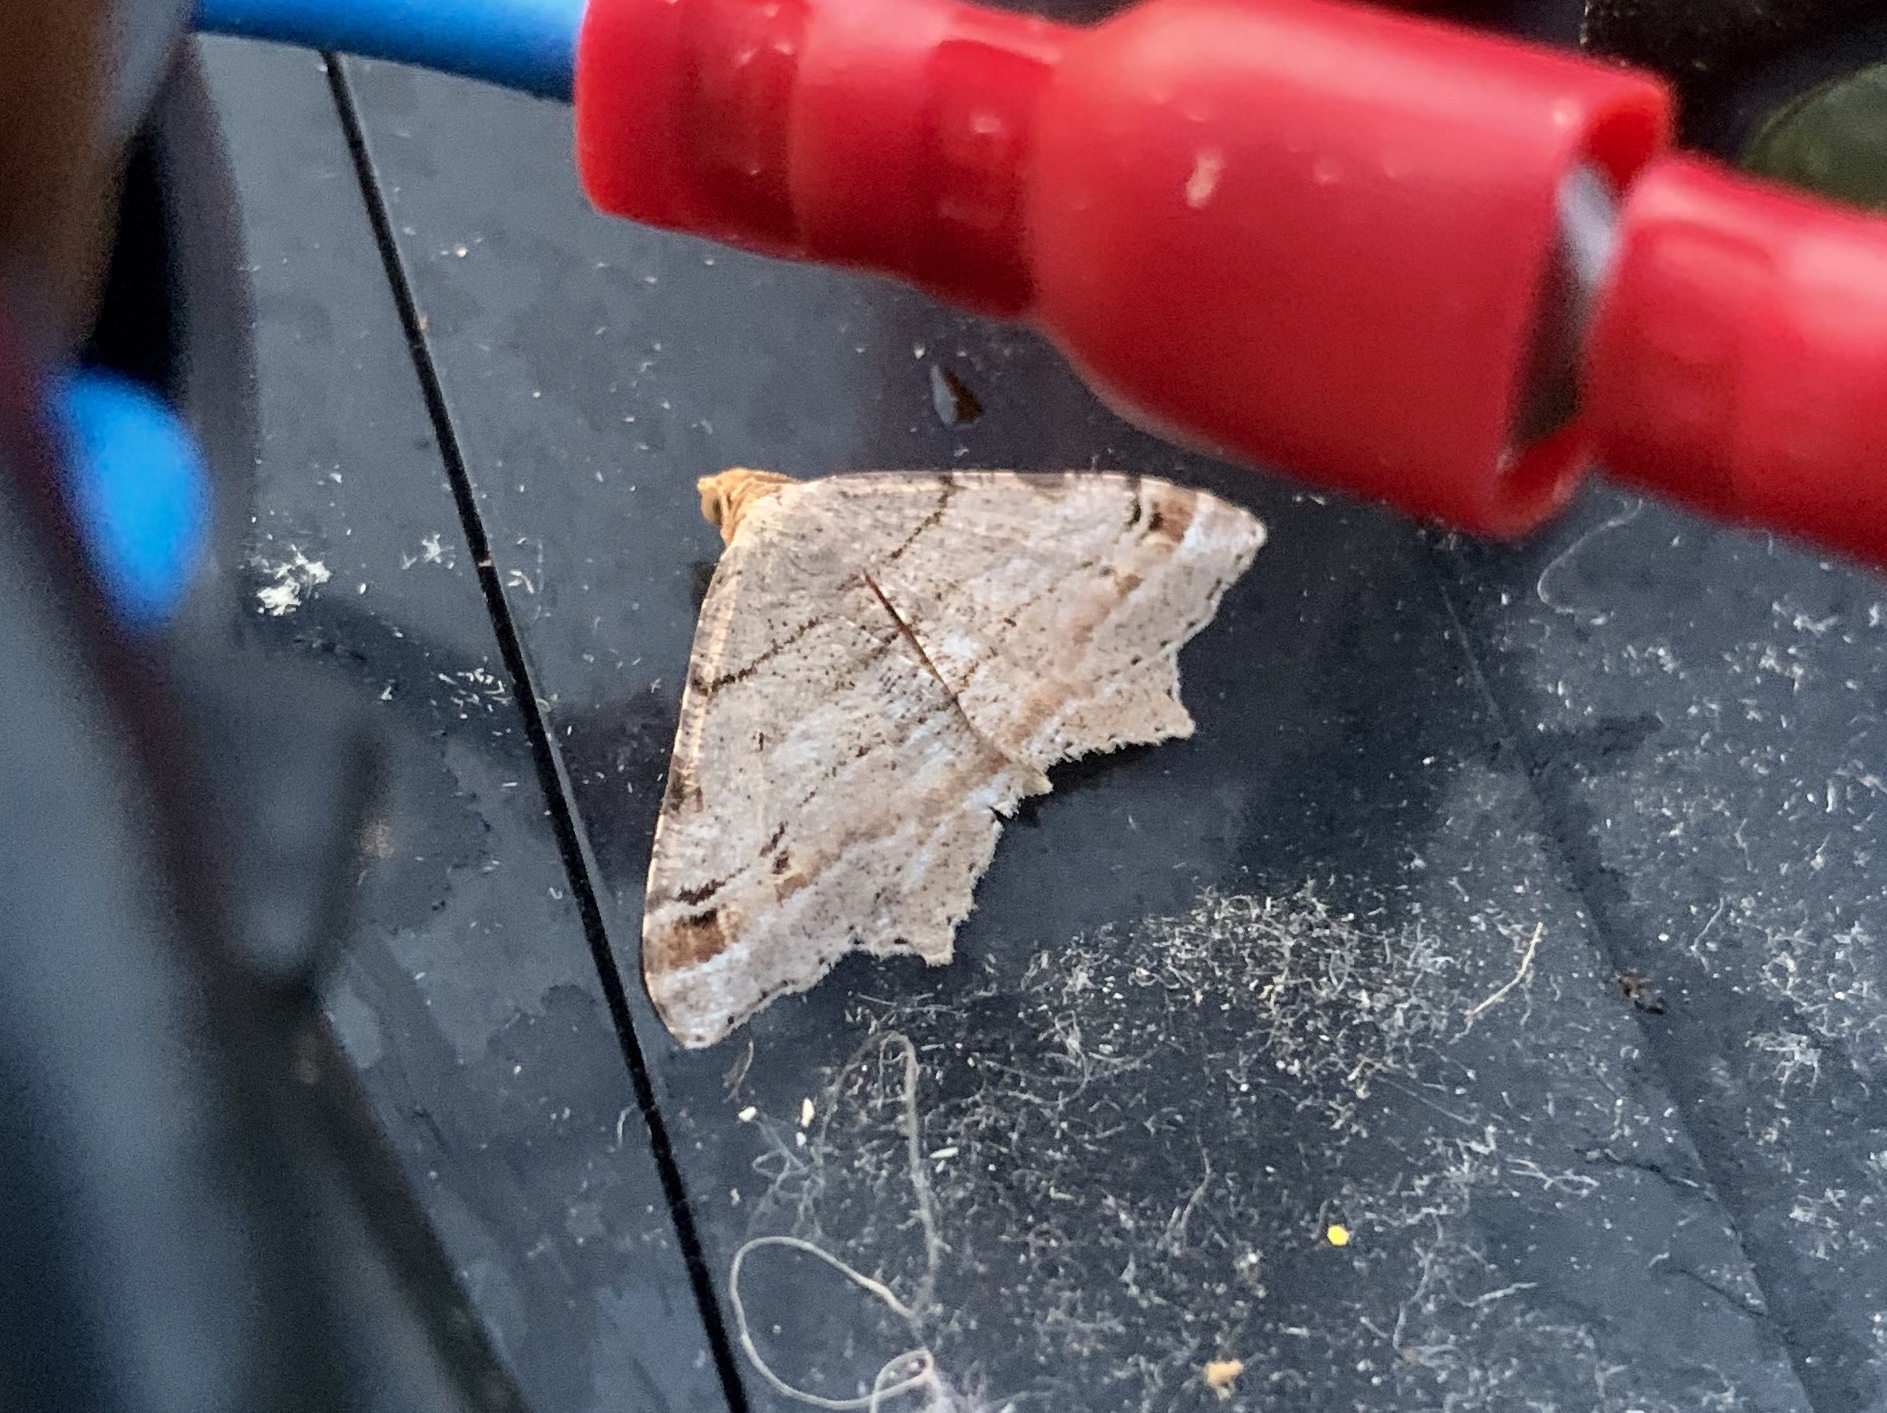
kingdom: Animalia
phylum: Arthropoda
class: Insecta
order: Lepidoptera
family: Geometridae
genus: Macaria
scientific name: Macaria multilineata
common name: Many-lined angle
